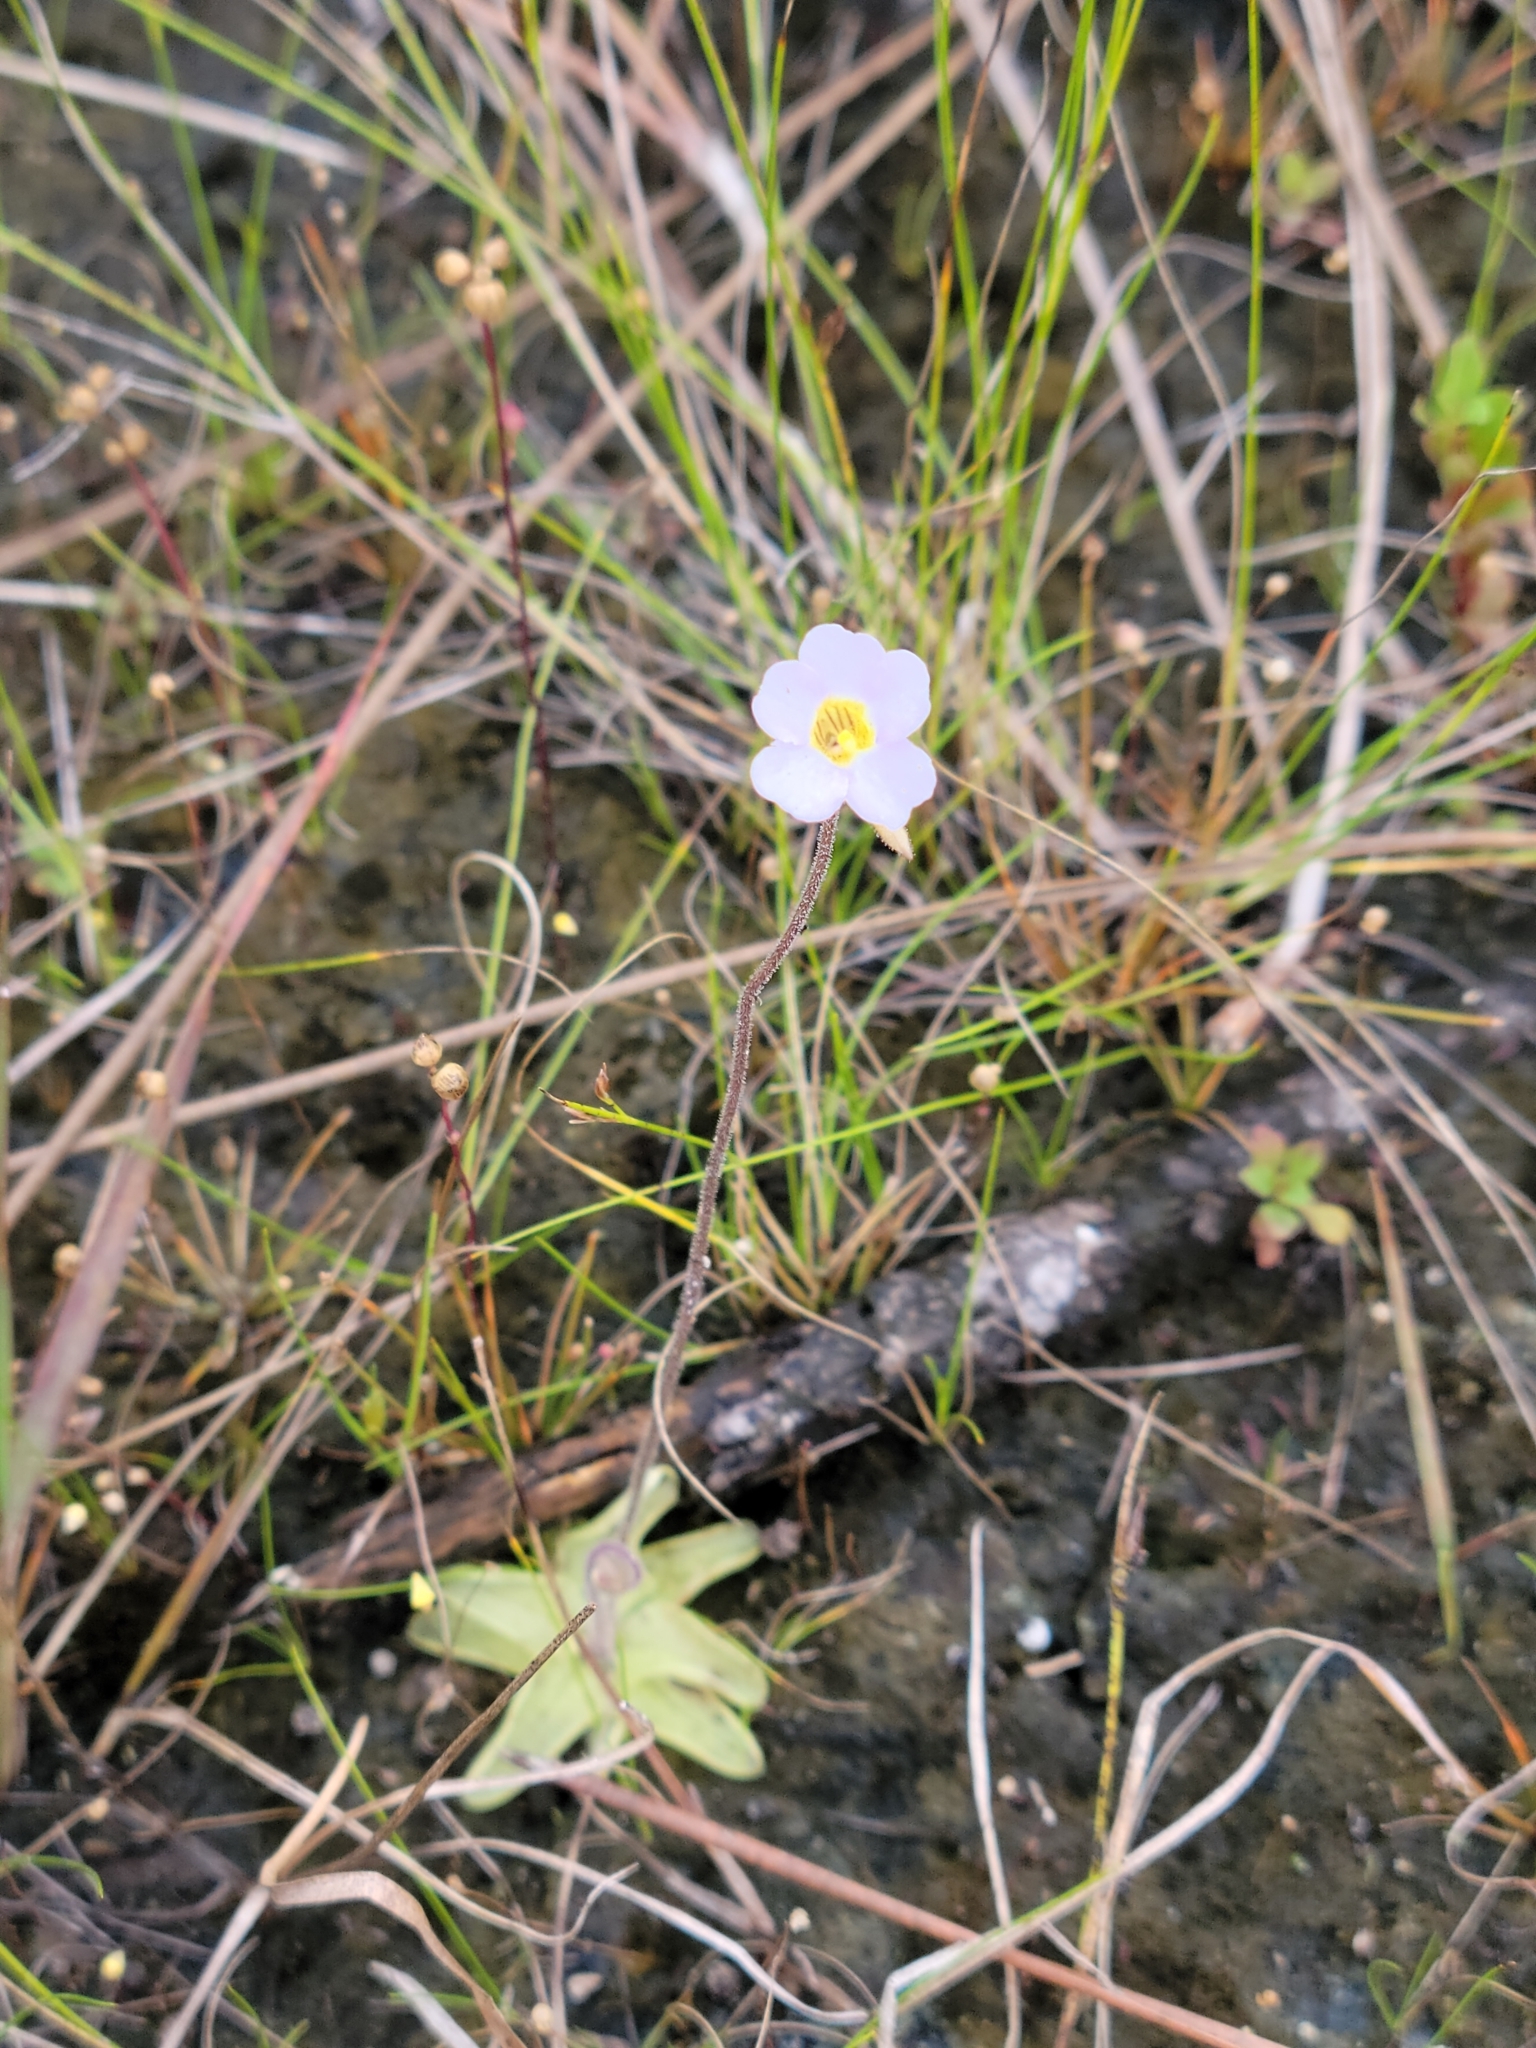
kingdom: Plantae
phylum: Tracheophyta
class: Magnoliopsida
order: Lamiales
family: Lentibulariaceae
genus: Pinguicula
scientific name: Pinguicula pumila
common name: Small butterwort
